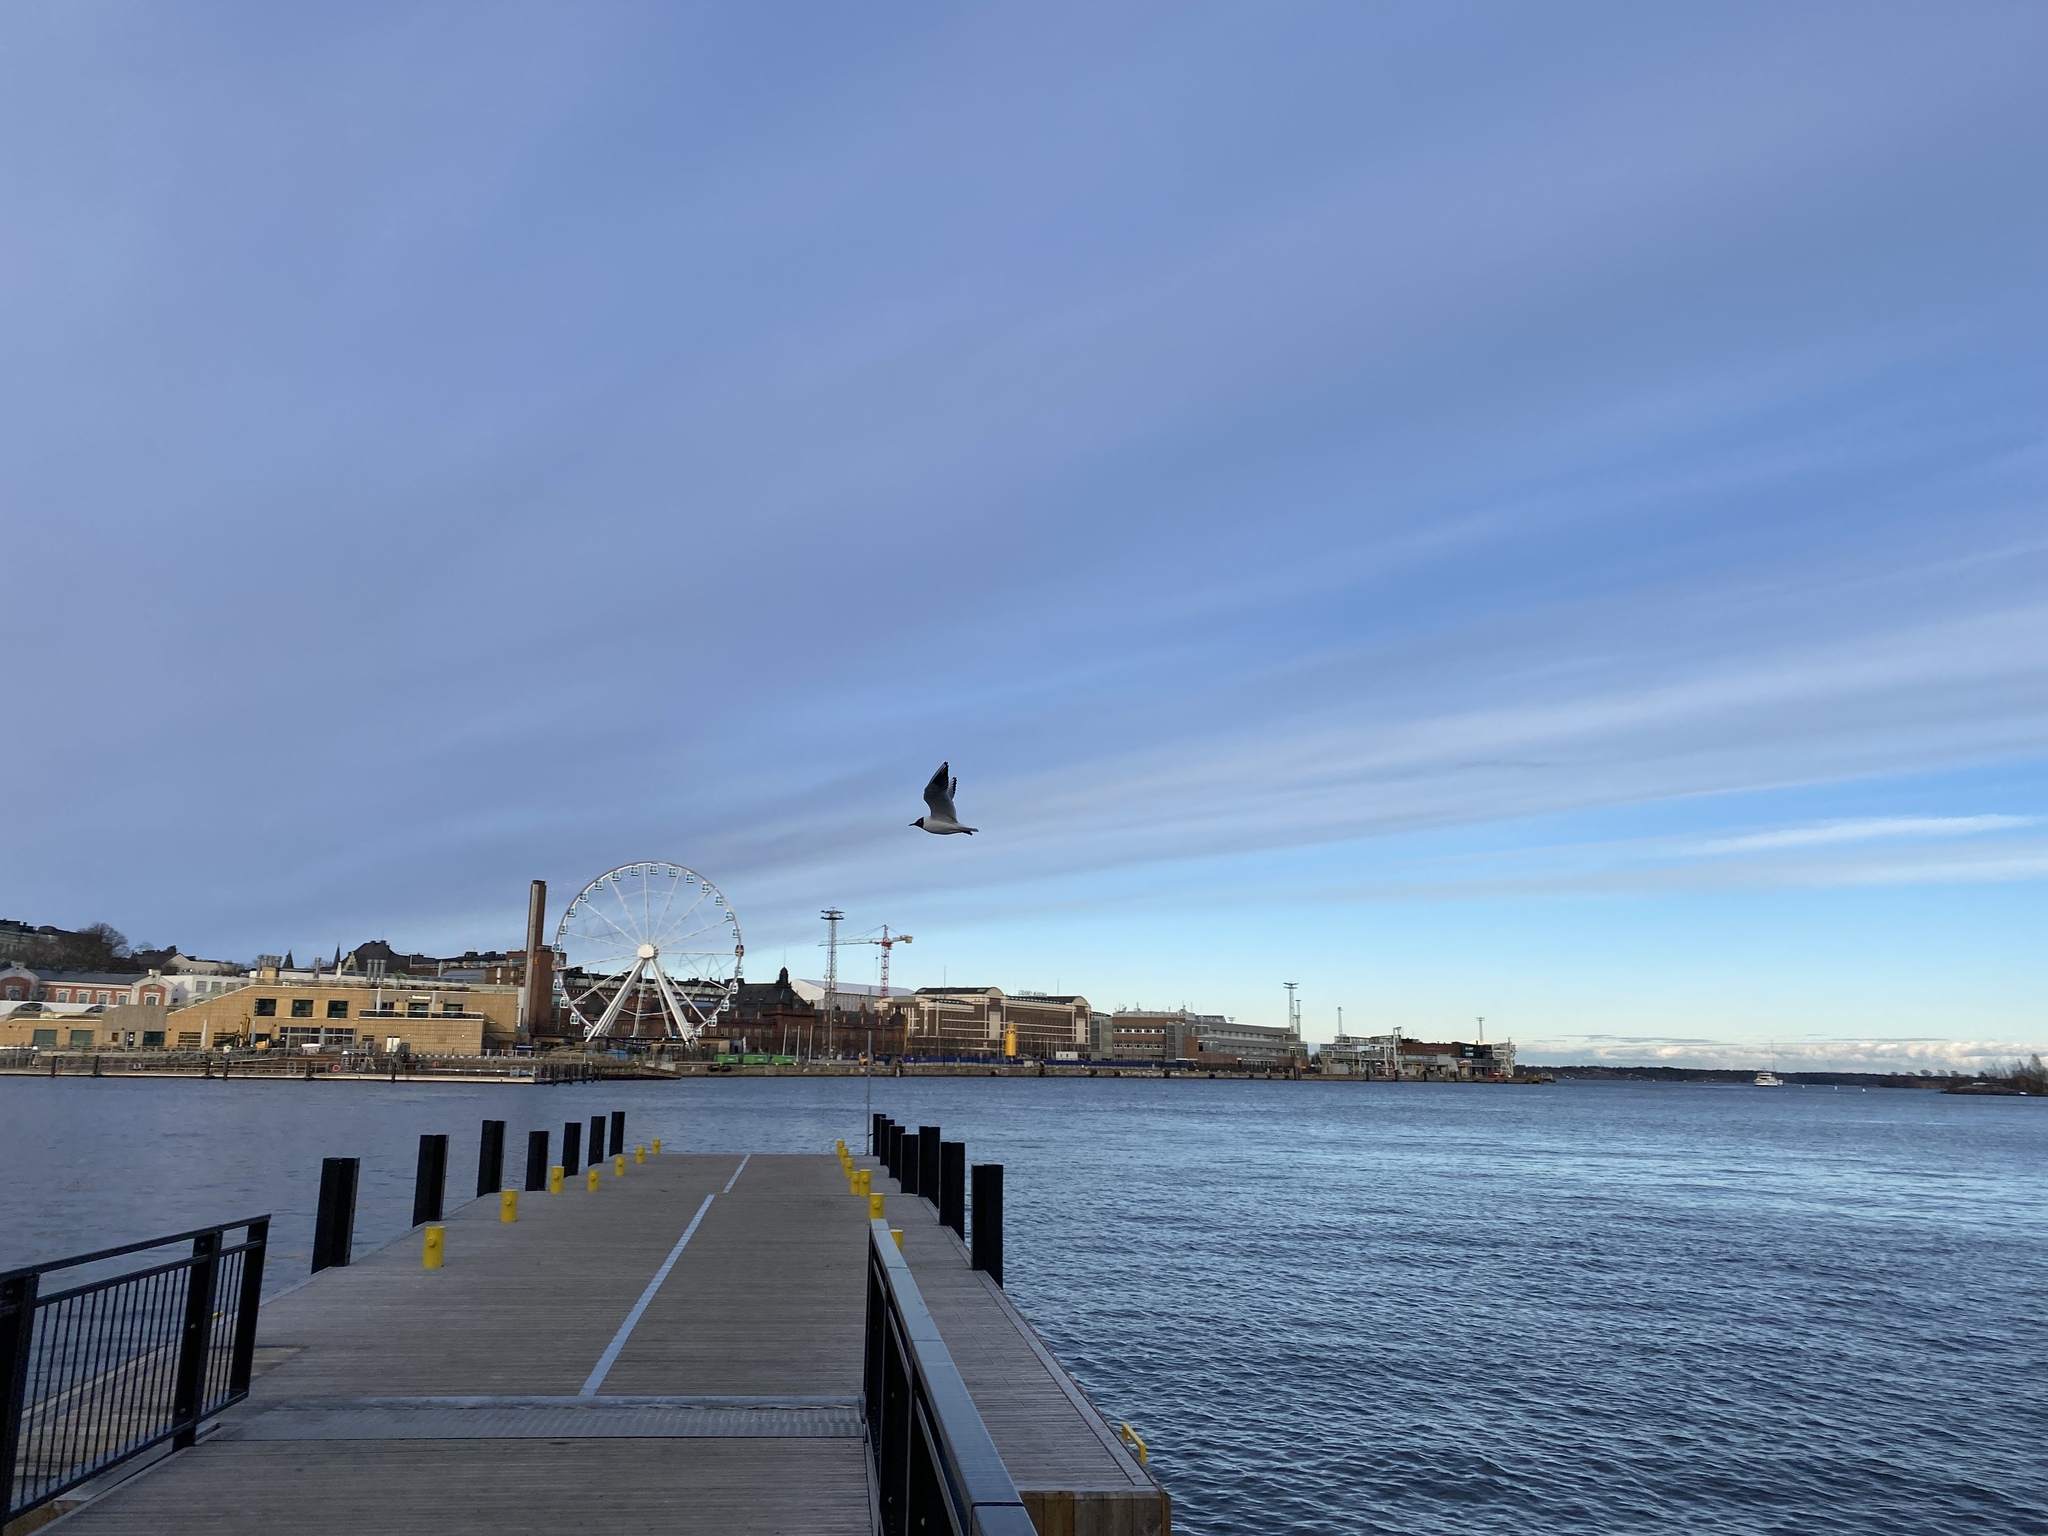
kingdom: Animalia
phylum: Chordata
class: Aves
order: Charadriiformes
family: Laridae
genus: Chroicocephalus
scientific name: Chroicocephalus ridibundus
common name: Black-headed gull
